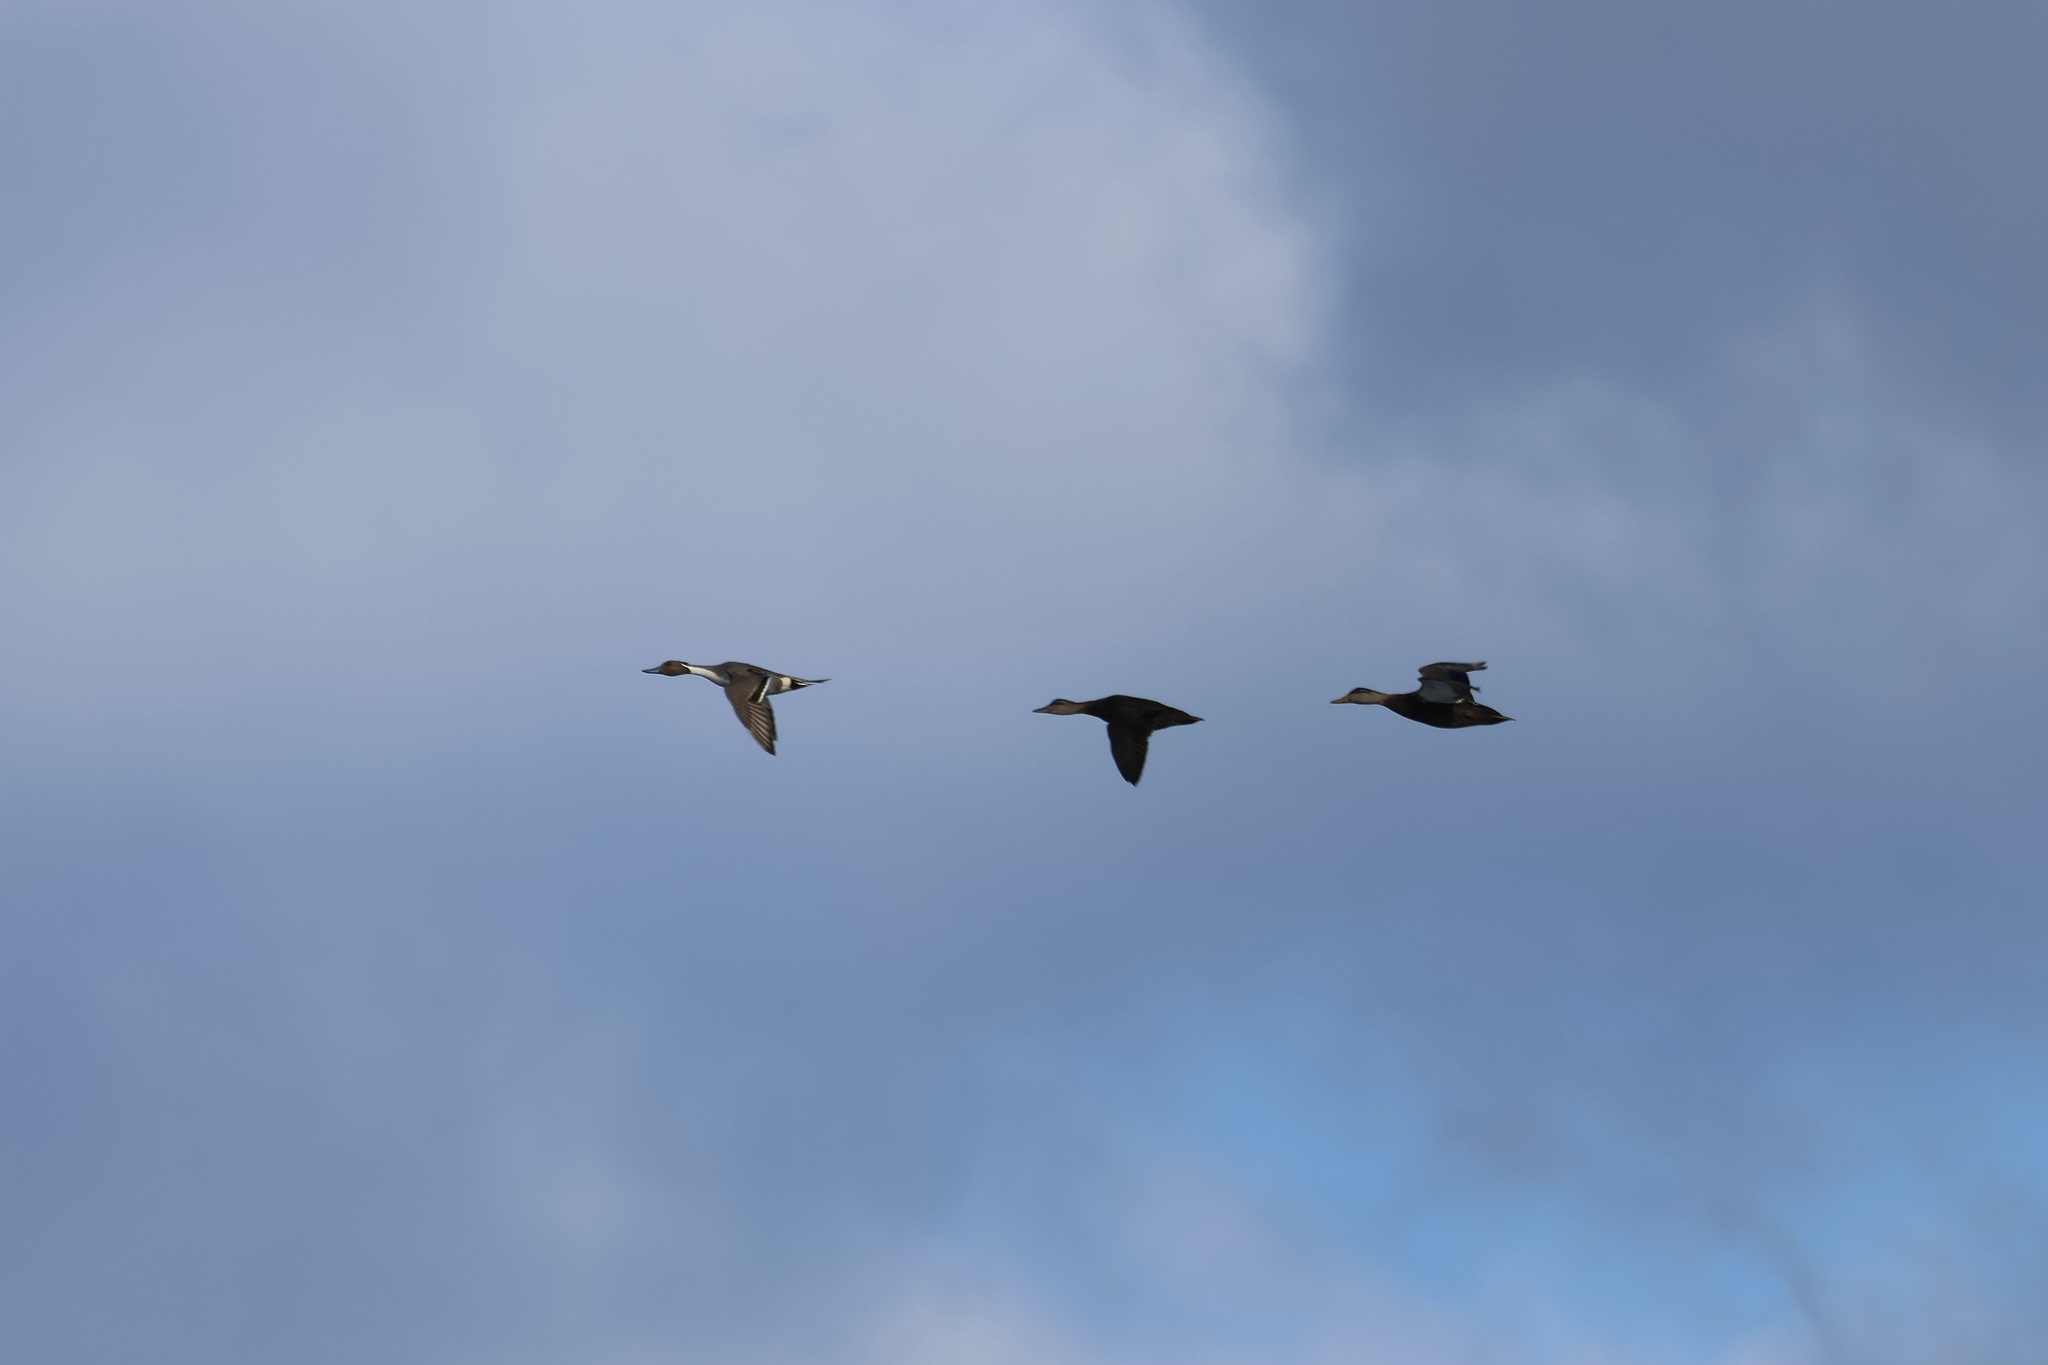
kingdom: Animalia
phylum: Chordata
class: Aves
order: Anseriformes
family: Anatidae
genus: Anas
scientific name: Anas acuta
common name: Northern pintail
